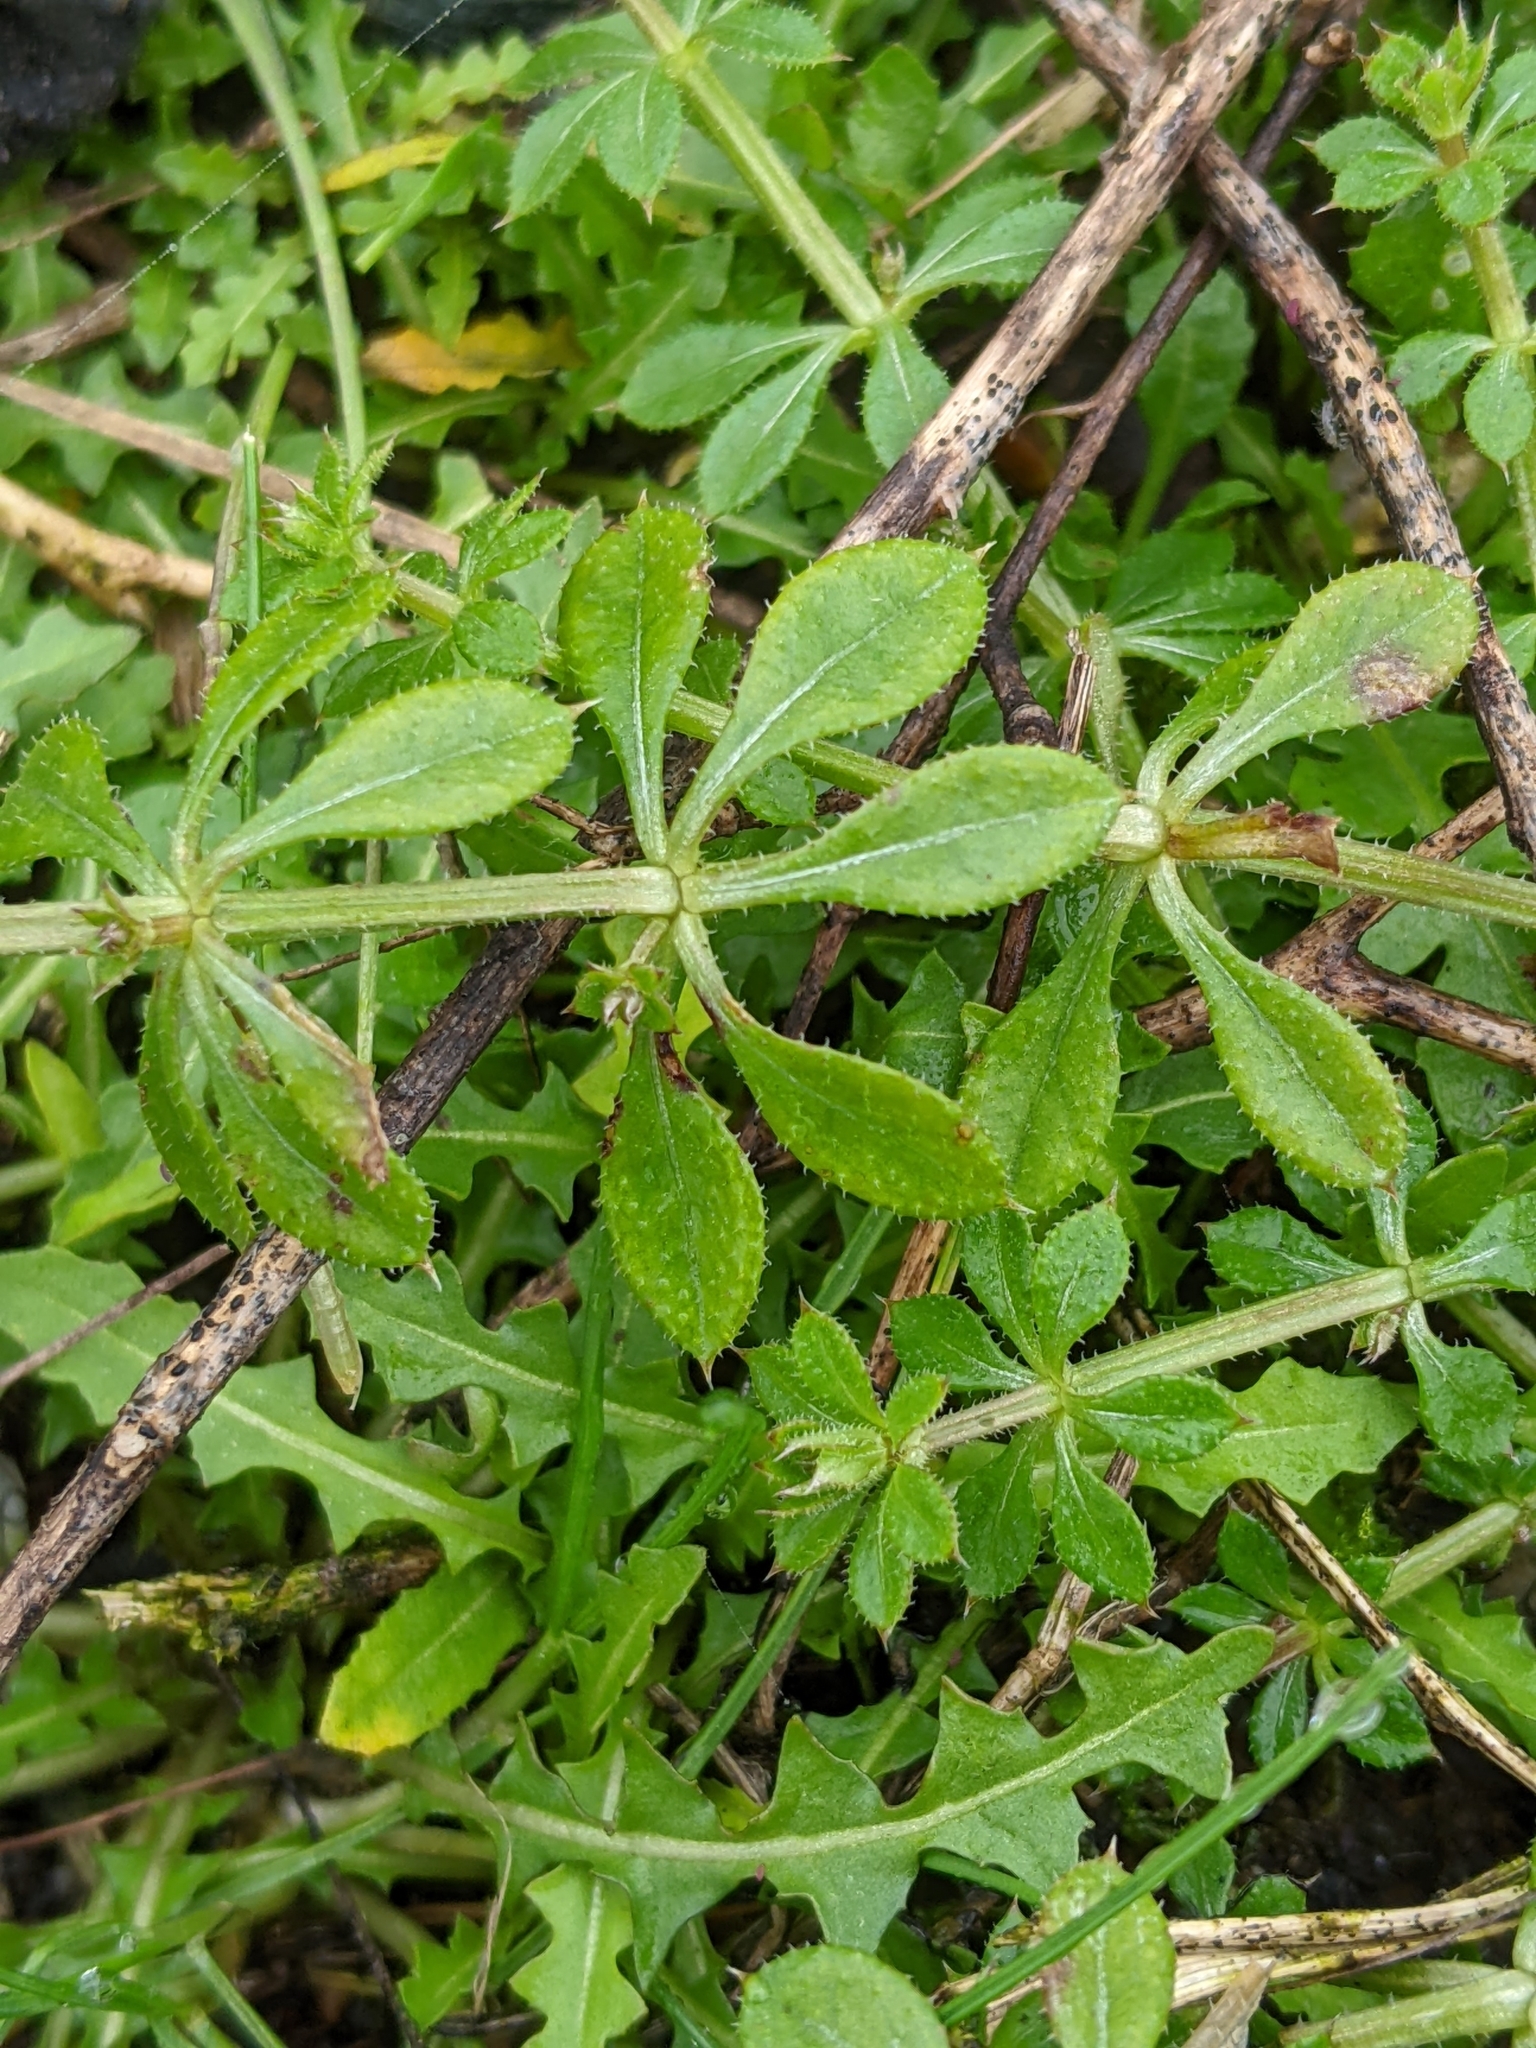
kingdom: Plantae
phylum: Tracheophyta
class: Magnoliopsida
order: Gentianales
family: Rubiaceae
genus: Galium
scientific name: Galium aparine
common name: Cleavers
